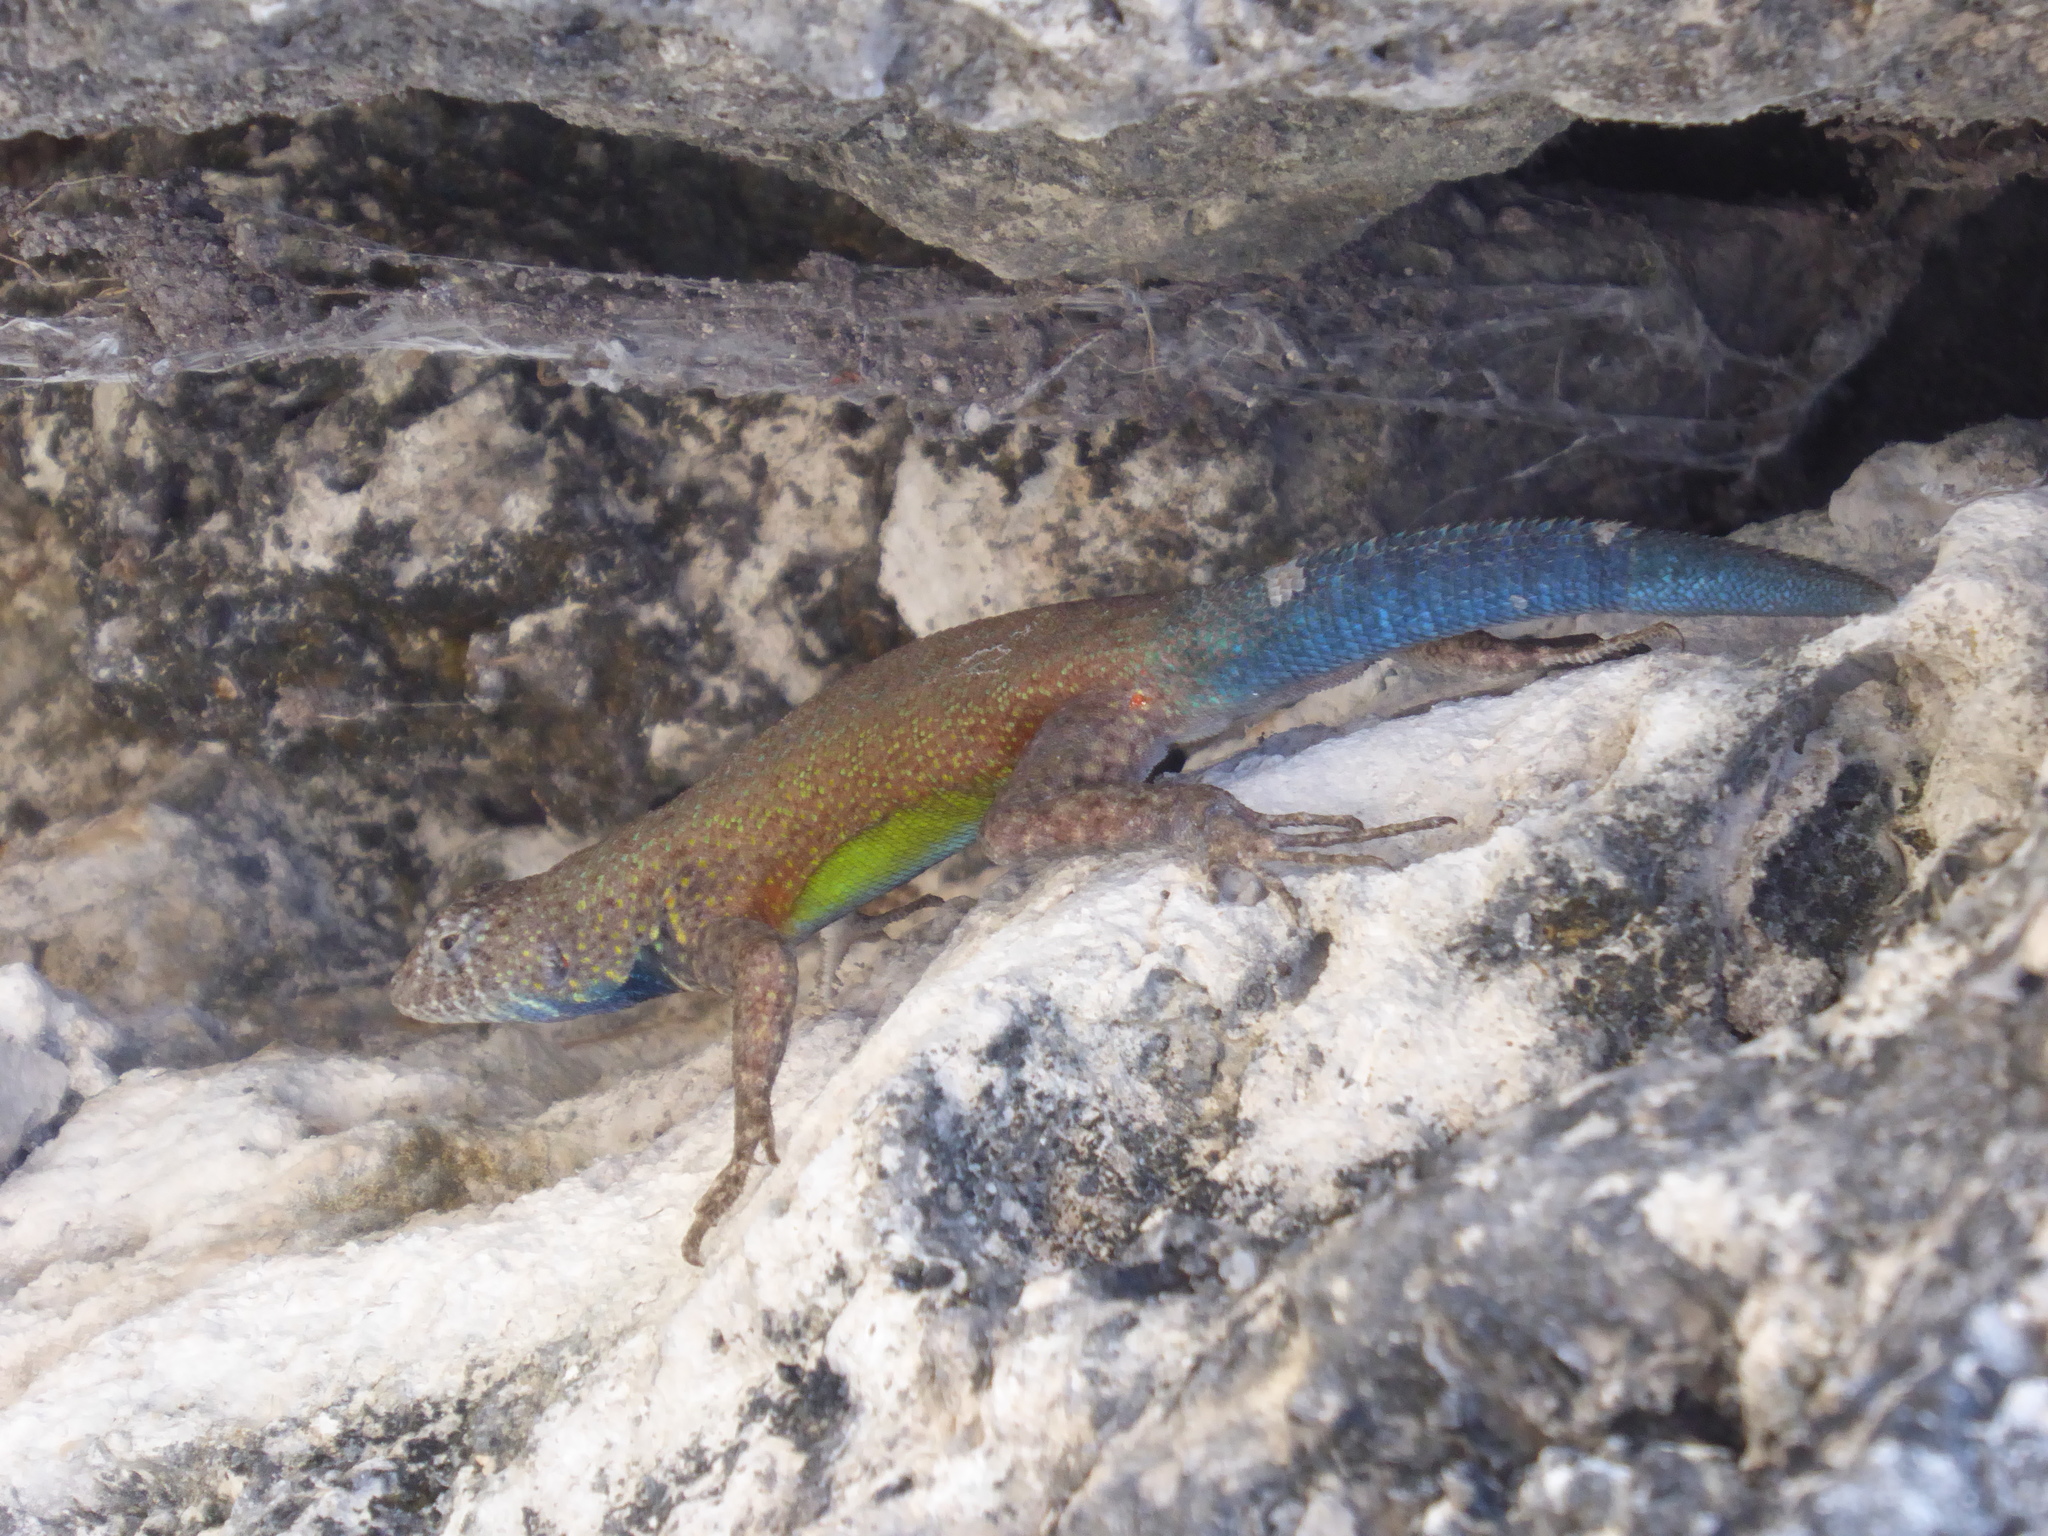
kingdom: Animalia
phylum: Chordata
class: Squamata
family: Phrynosomatidae
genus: Sceloporus
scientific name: Sceloporus gadoviae
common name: Gadow's spiny lizard
